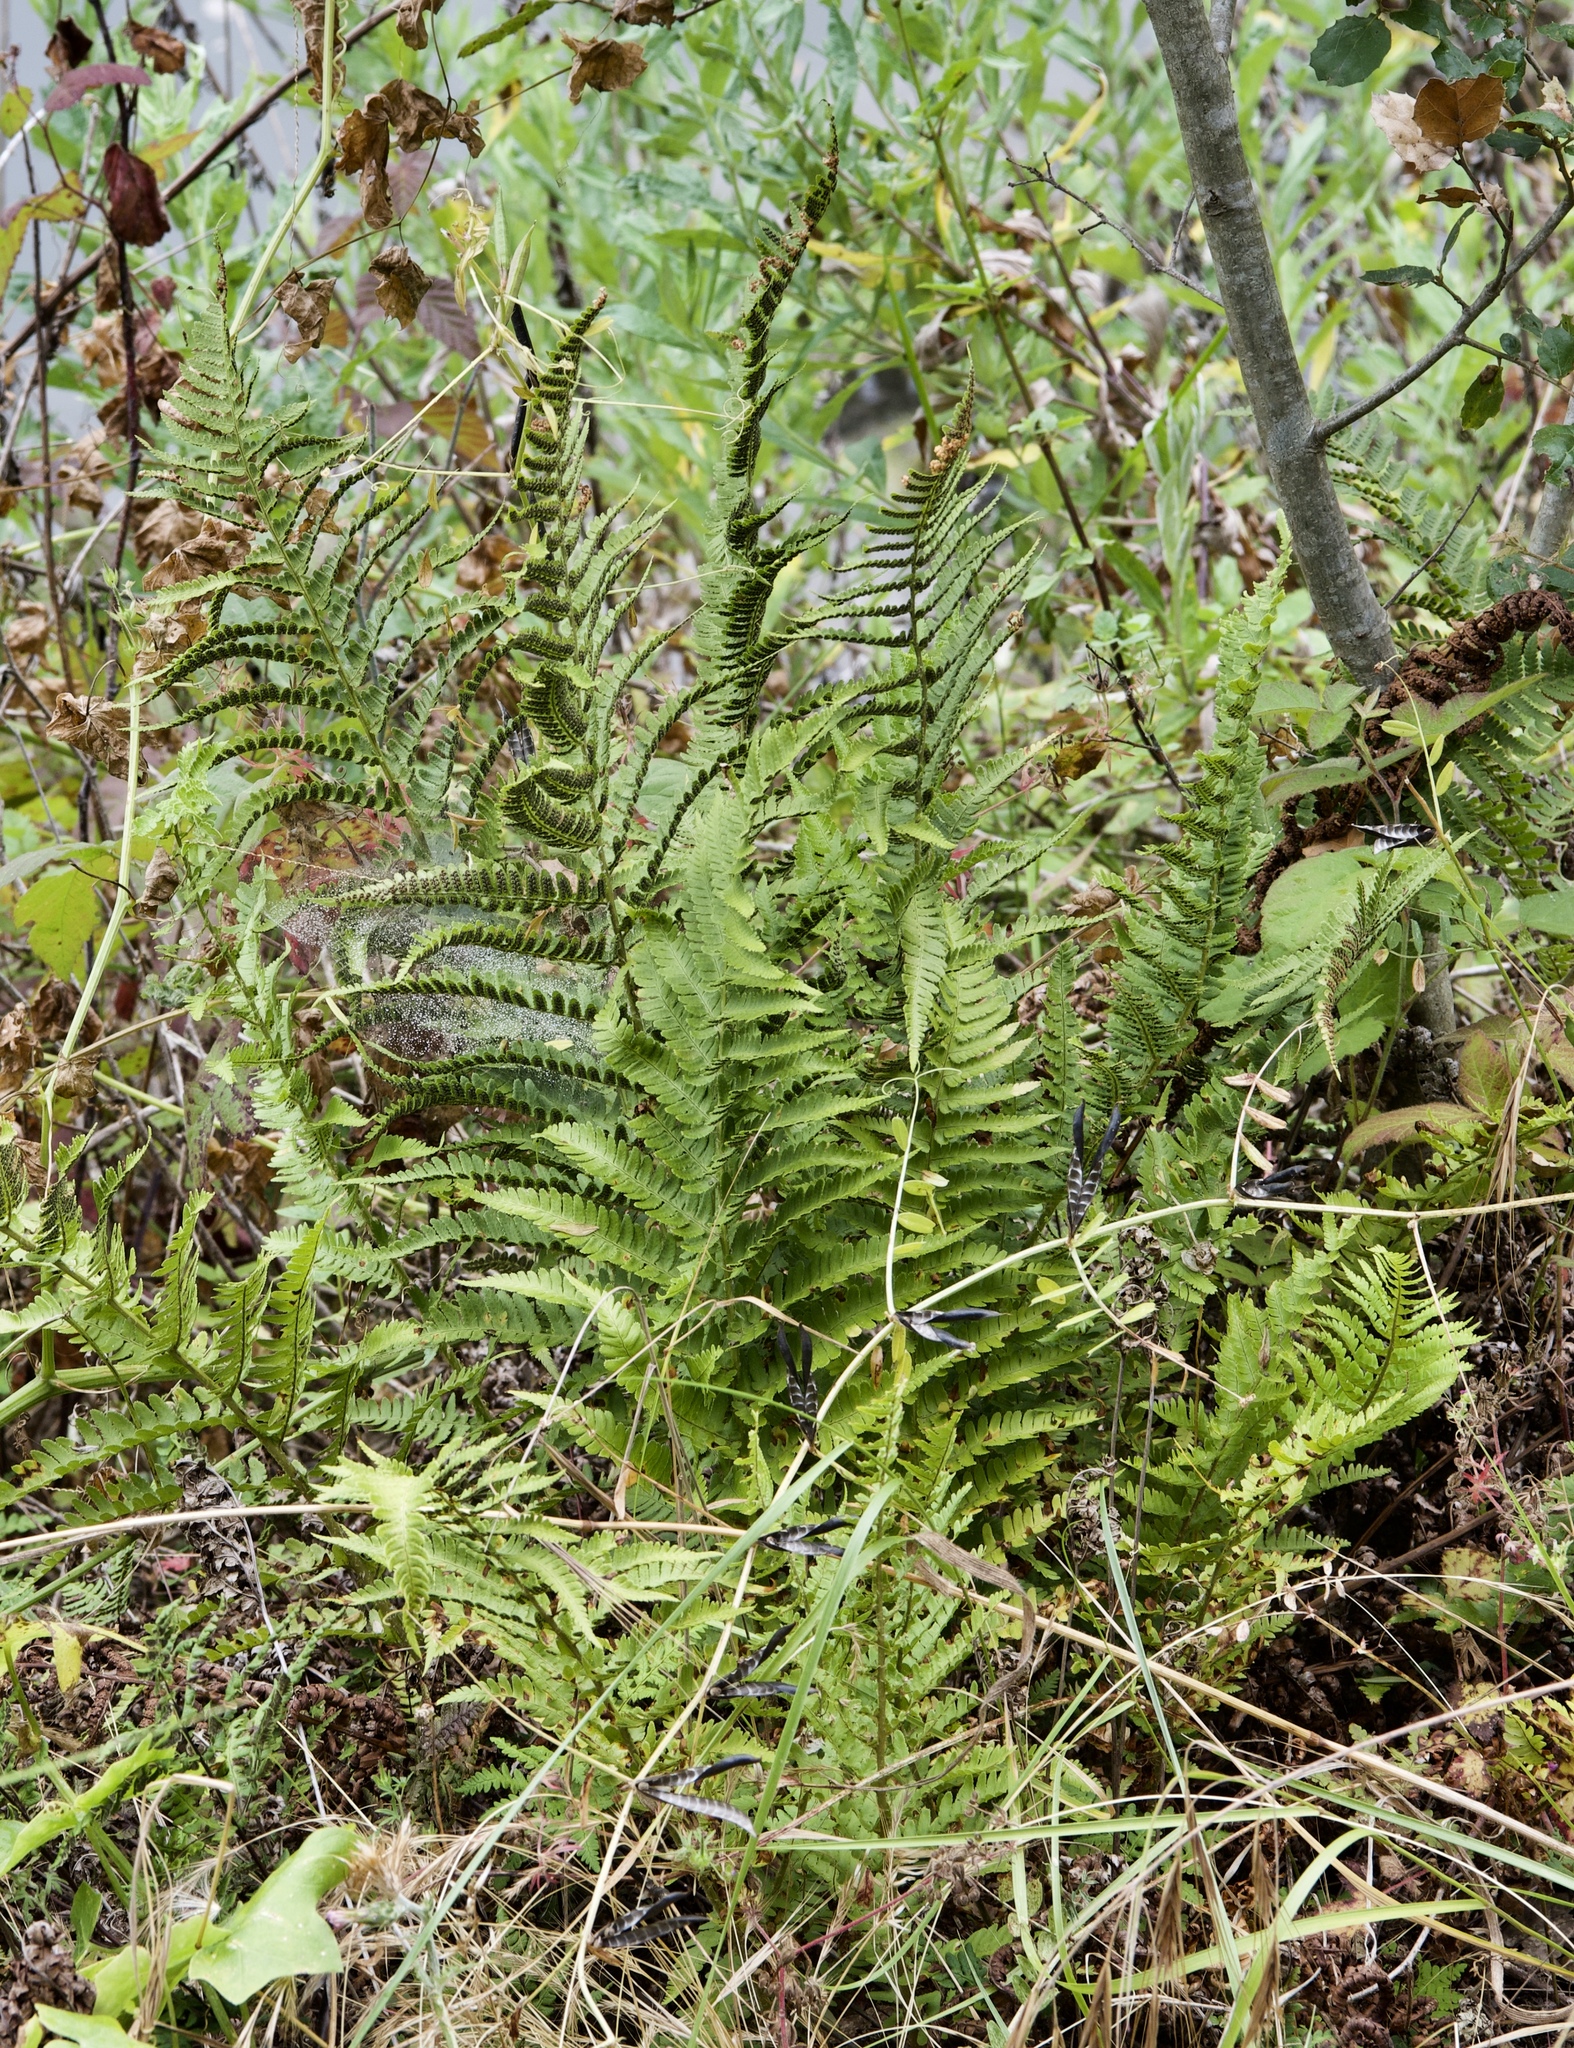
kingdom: Plantae
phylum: Tracheophyta
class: Polypodiopsida
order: Polypodiales
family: Dryopteridaceae
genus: Dryopteris
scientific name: Dryopteris arguta
